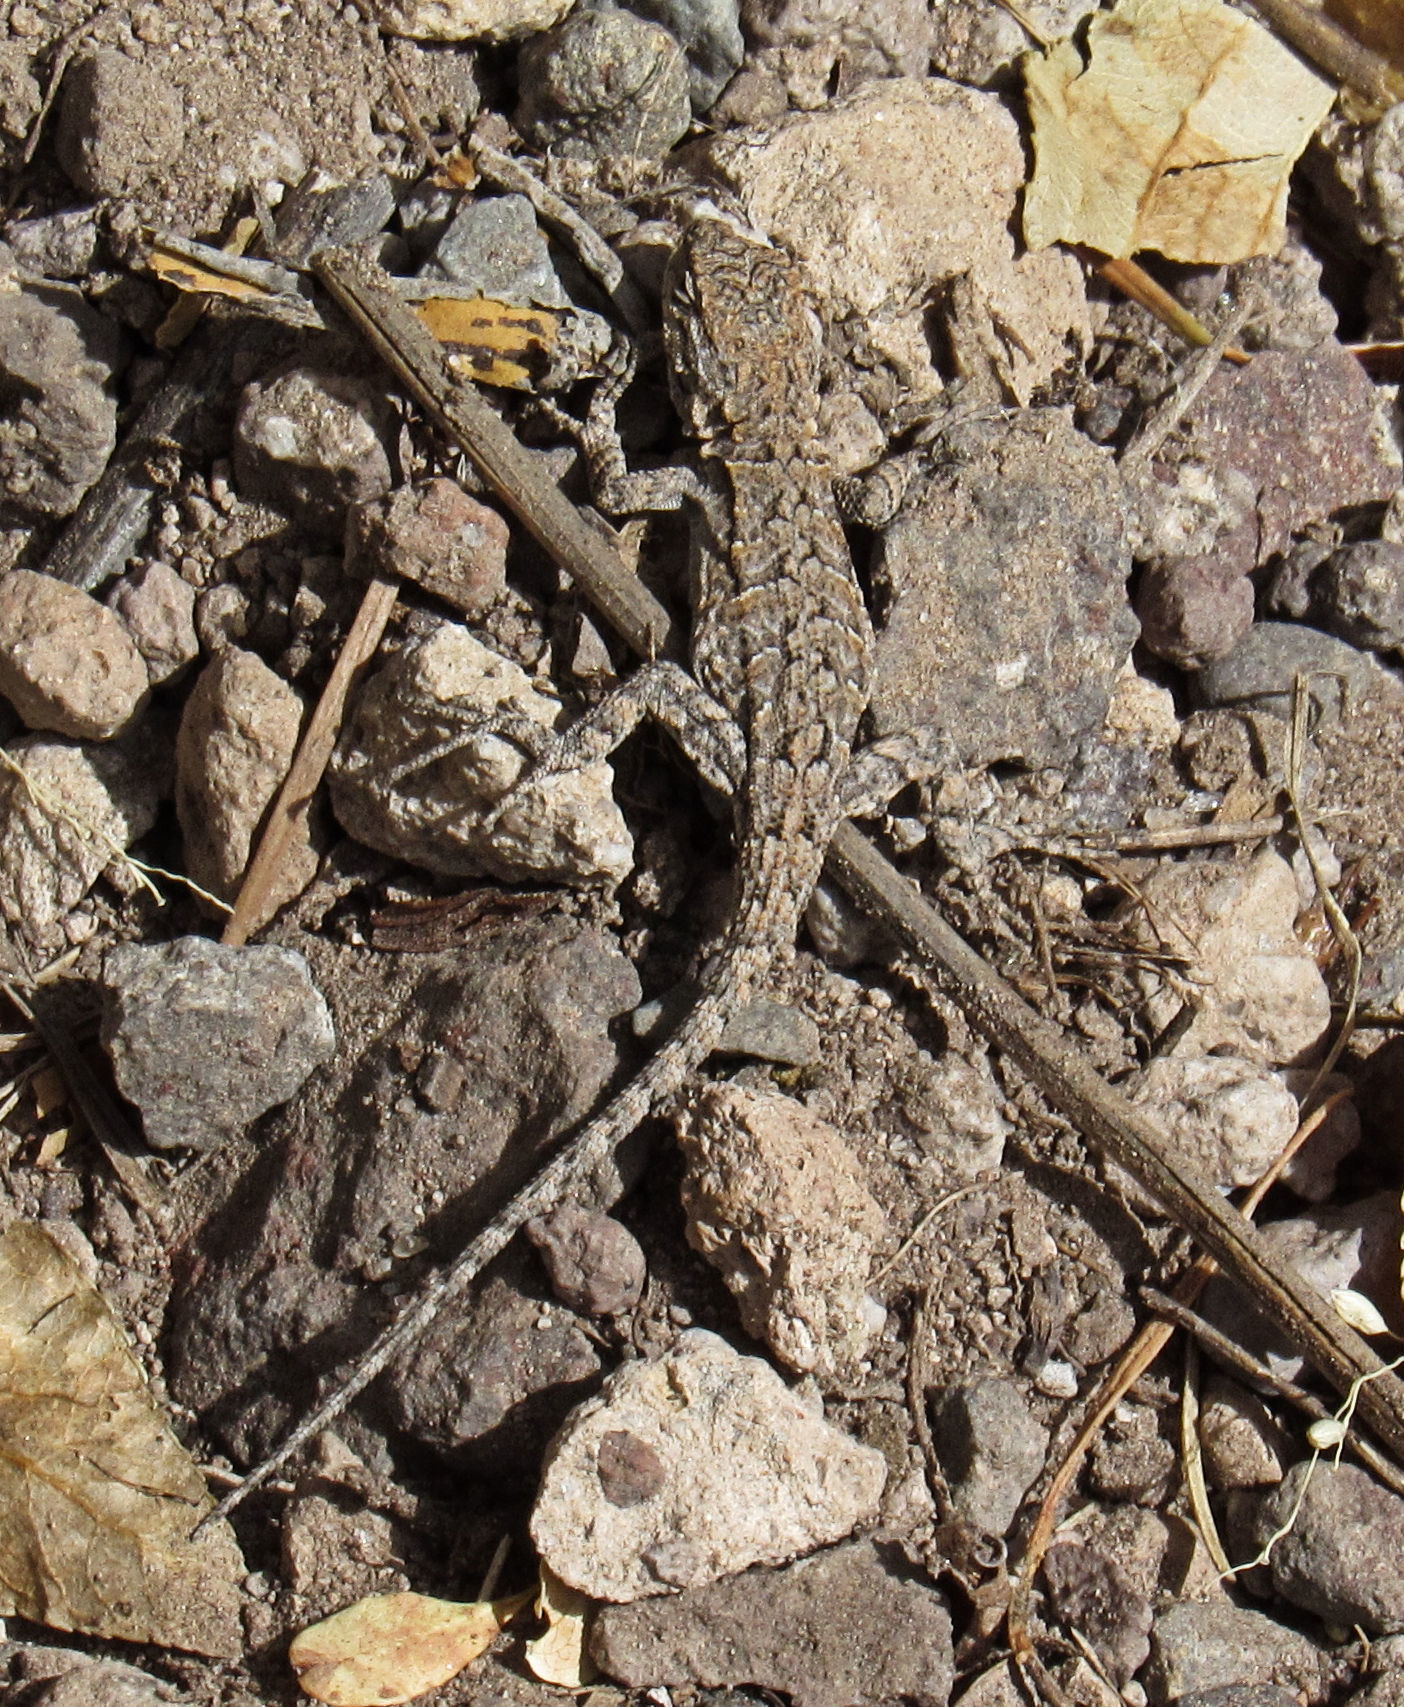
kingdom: Animalia
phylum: Chordata
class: Squamata
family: Phrynosomatidae
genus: Urosaurus
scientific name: Urosaurus ornatus
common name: Ornate tree lizard
